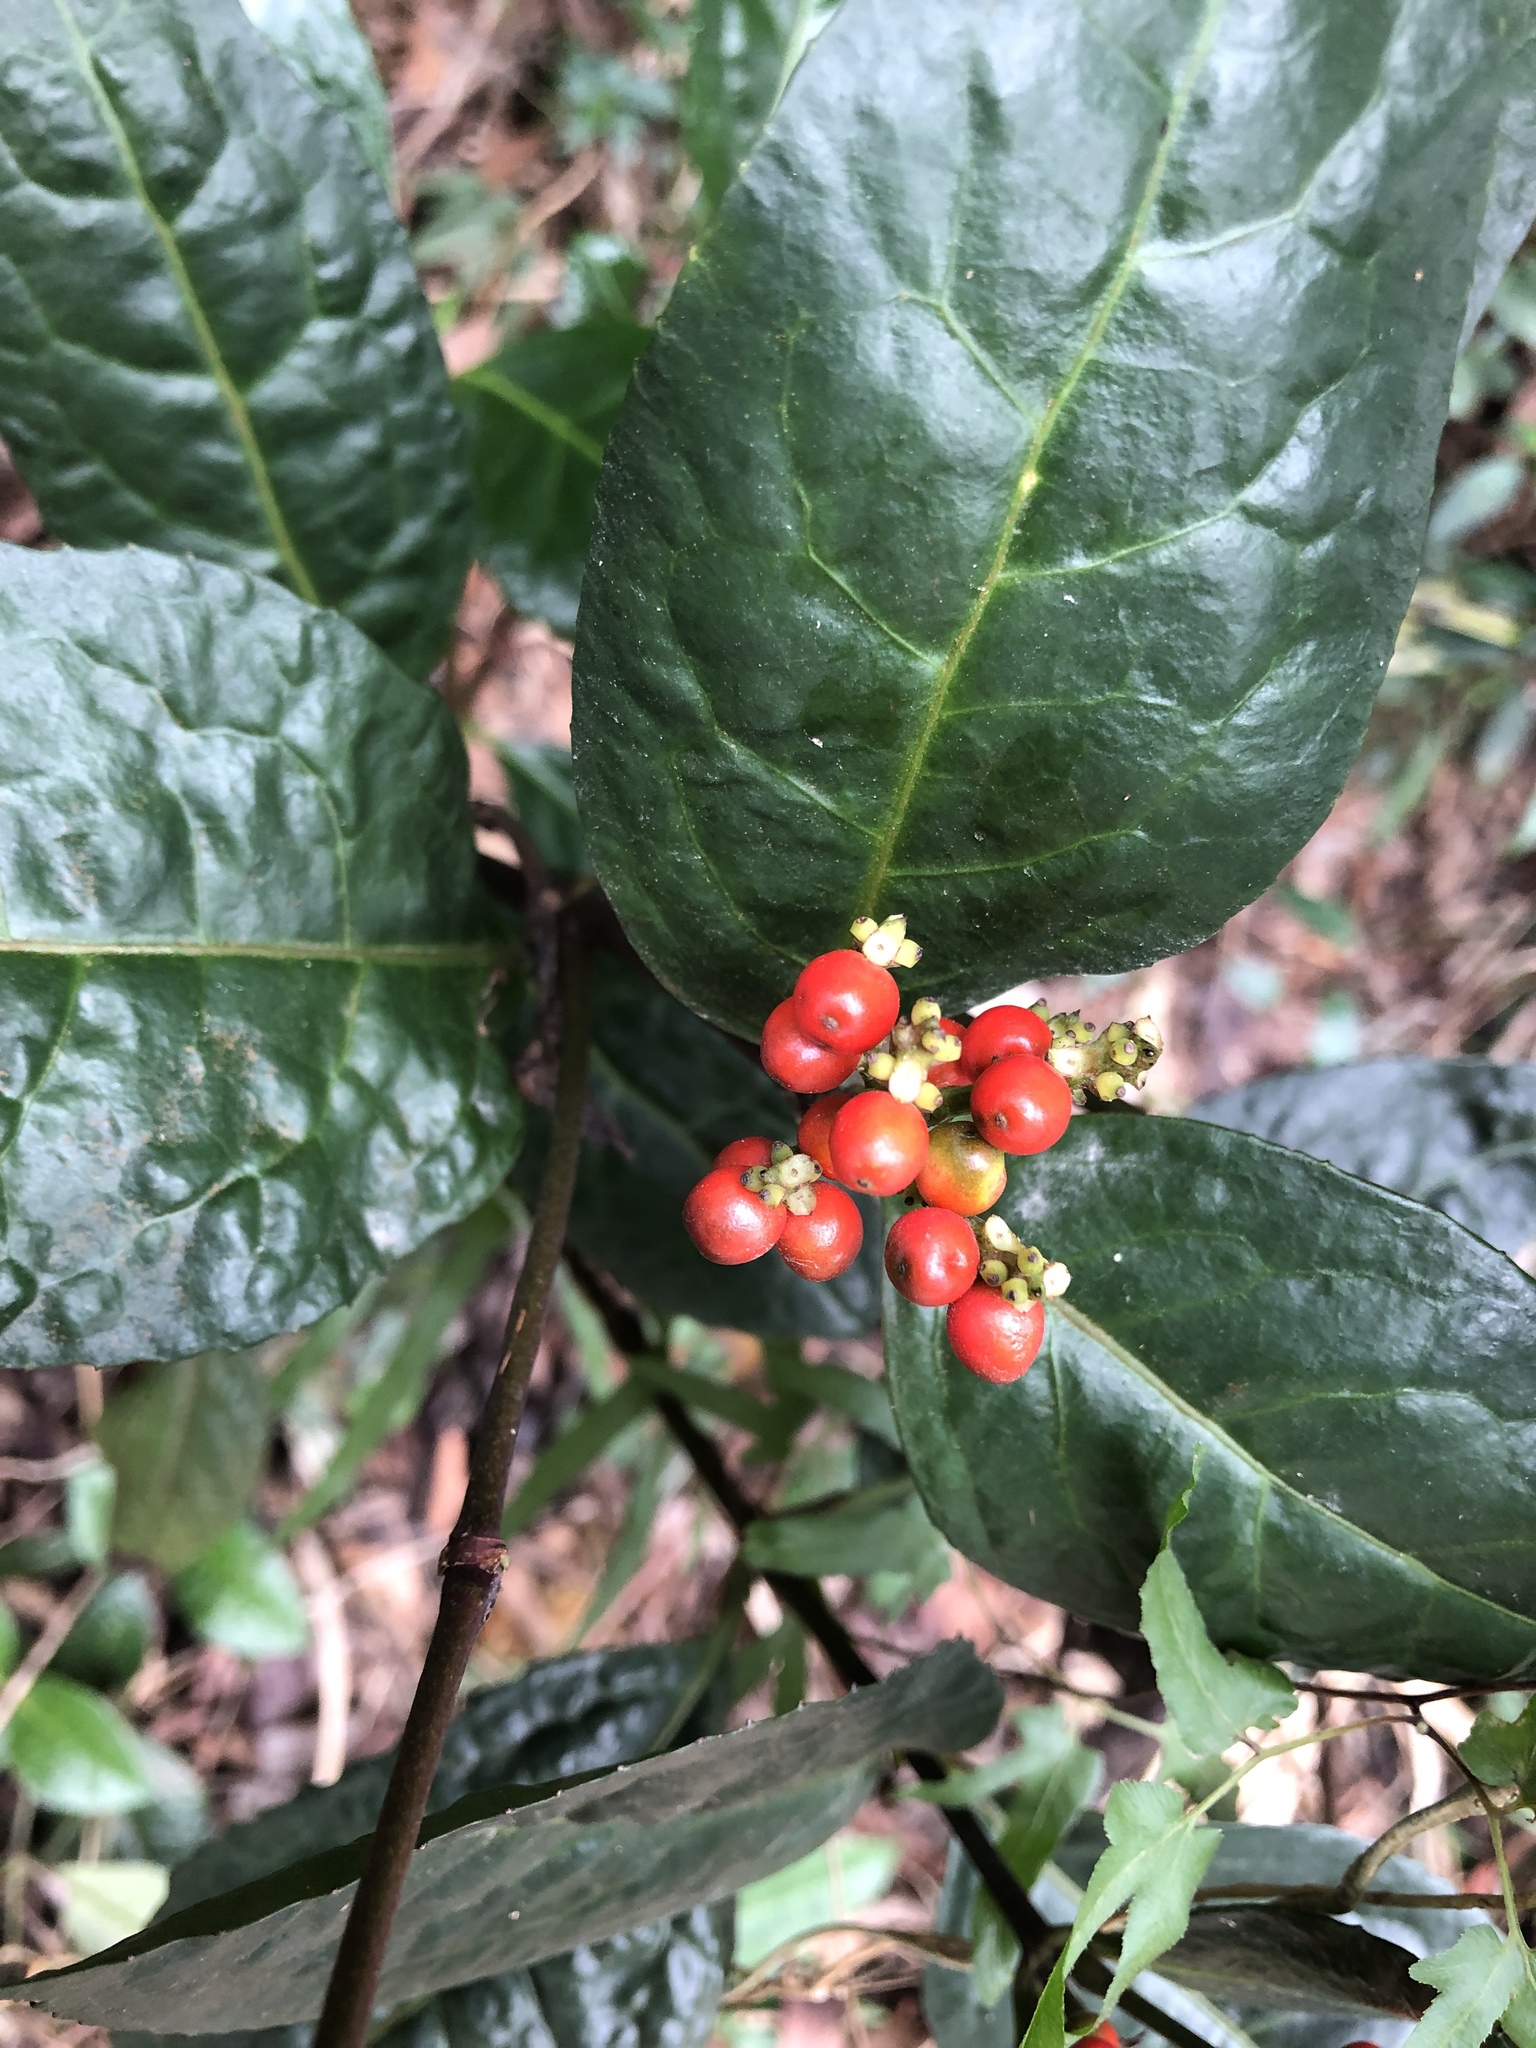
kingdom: Plantae
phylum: Tracheophyta
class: Magnoliopsida
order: Chloranthales
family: Chloranthaceae
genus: Sarcandra
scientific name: Sarcandra glabra
